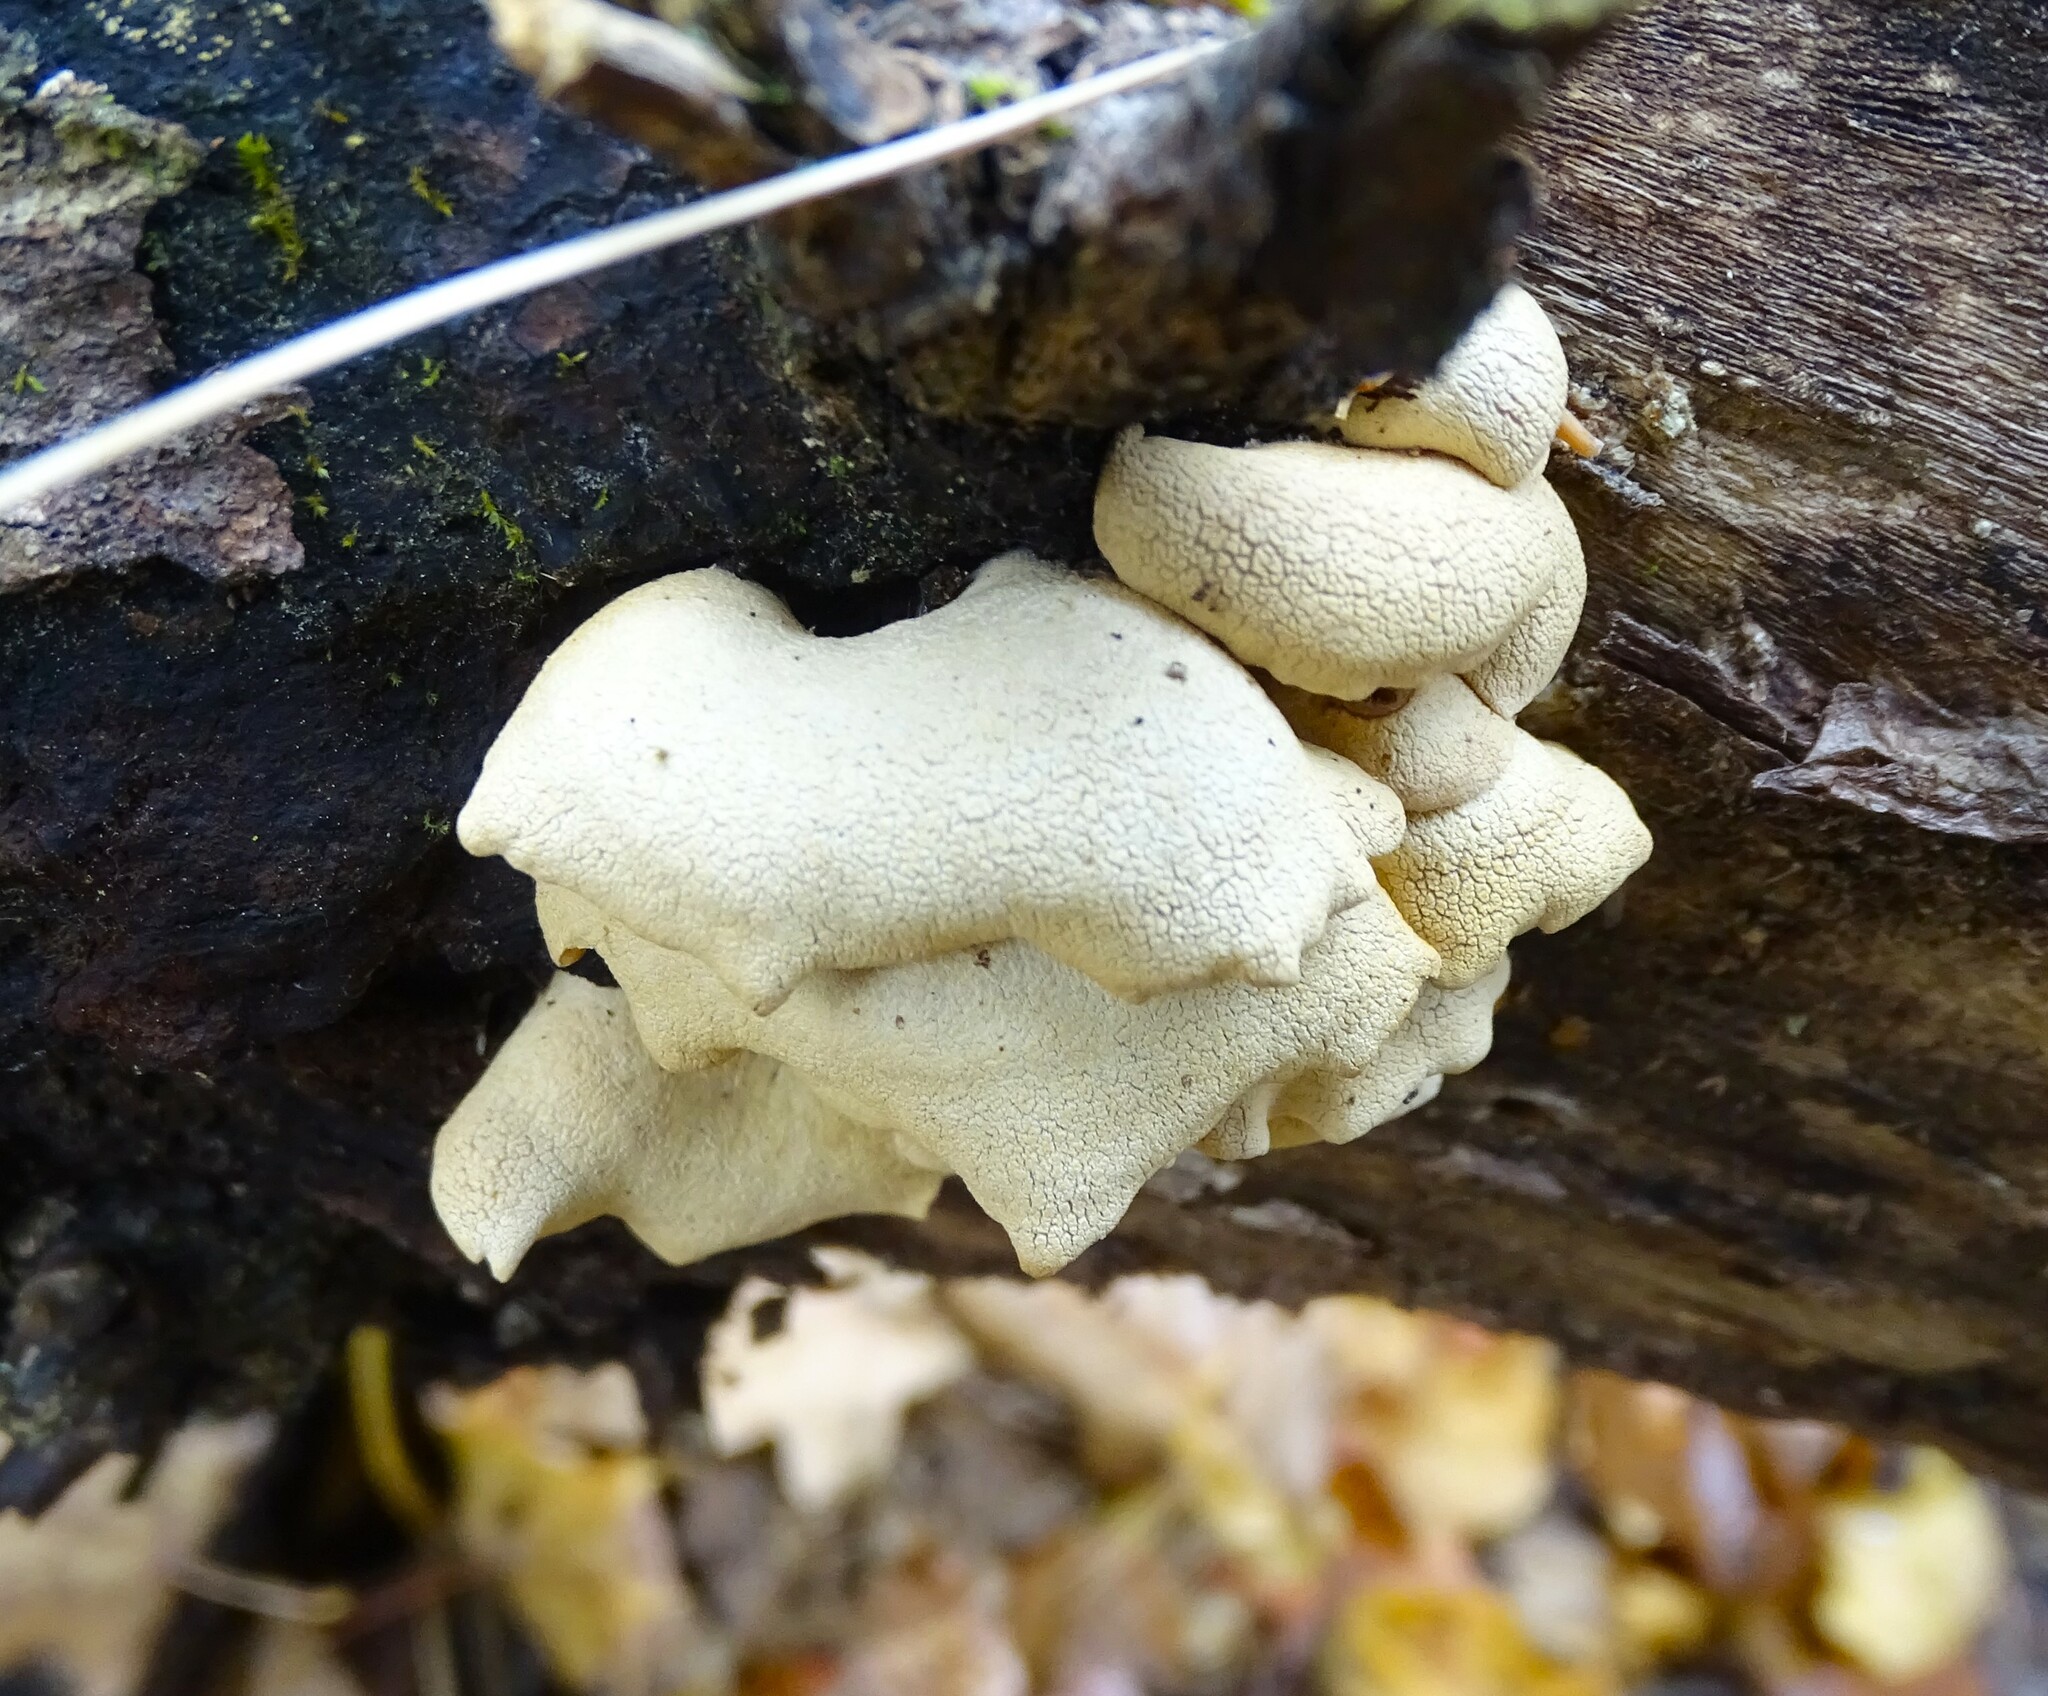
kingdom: Fungi
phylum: Basidiomycota
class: Agaricomycetes
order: Agaricales
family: Mycenaceae
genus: Panellus
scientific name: Panellus stipticus
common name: Bitter oysterling
